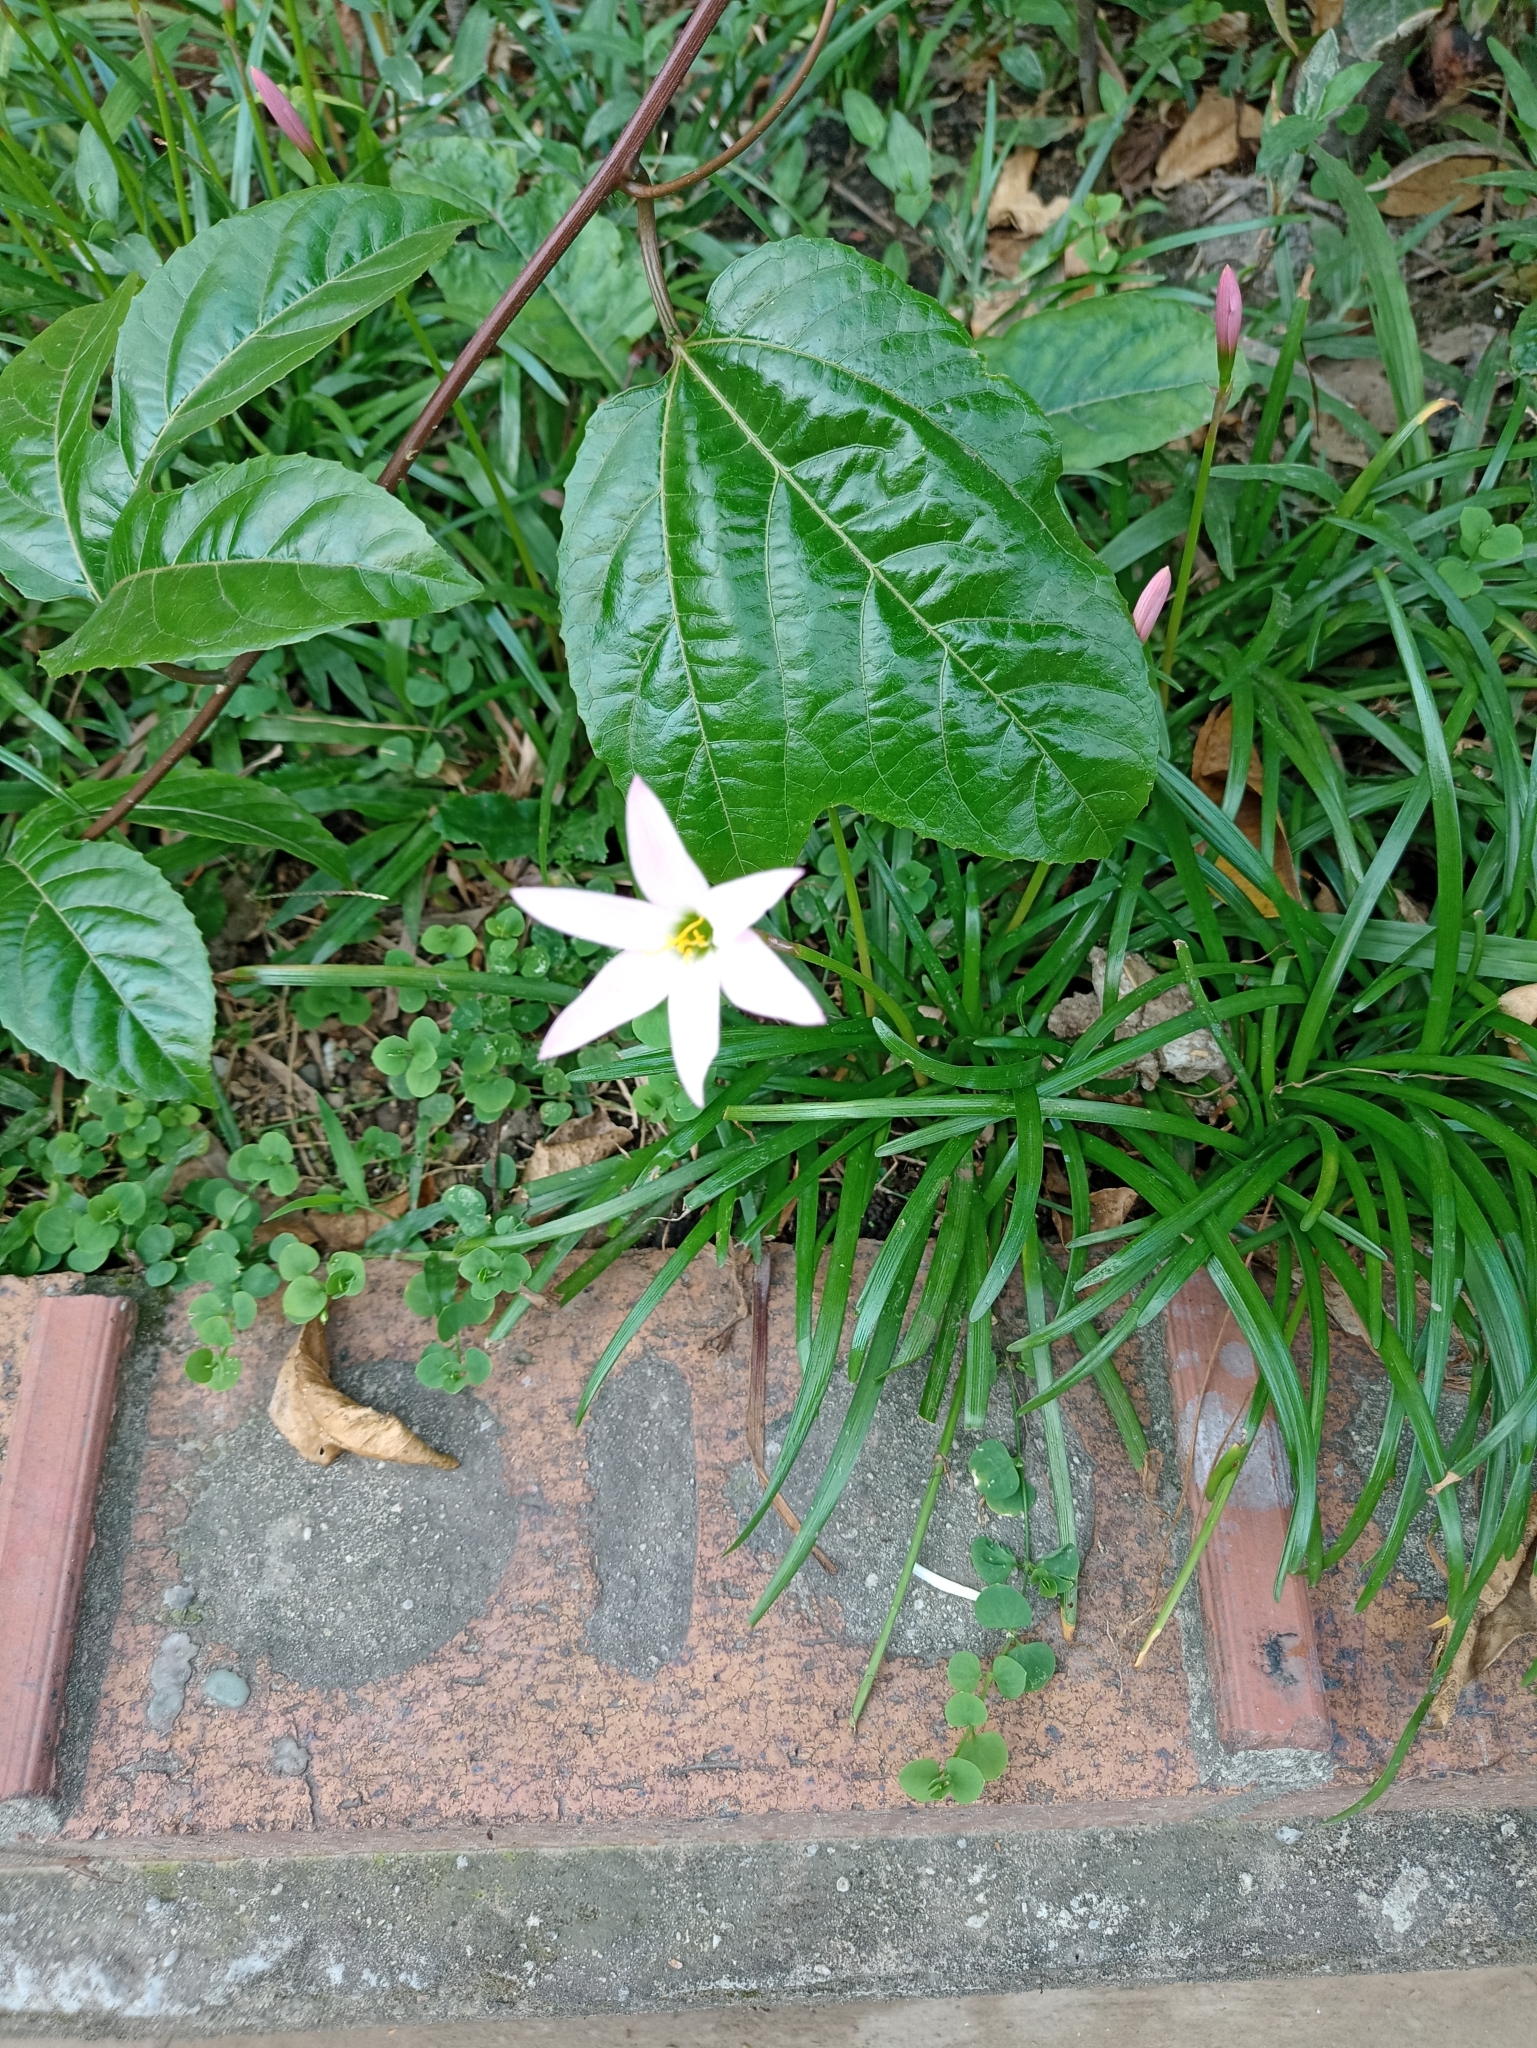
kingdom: Plantae
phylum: Tracheophyta
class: Liliopsida
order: Asparagales
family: Amaryllidaceae
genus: Zephyranthes
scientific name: Zephyranthes carinata
